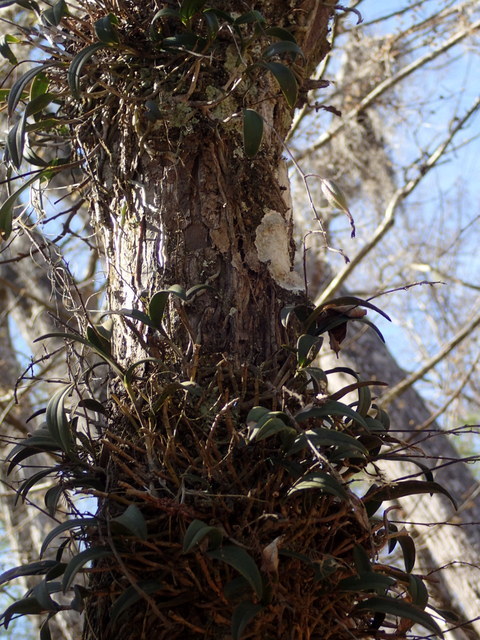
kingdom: Plantae
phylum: Tracheophyta
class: Liliopsida
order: Asparagales
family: Orchidaceae
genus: Epidendrum
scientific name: Epidendrum conopseum
